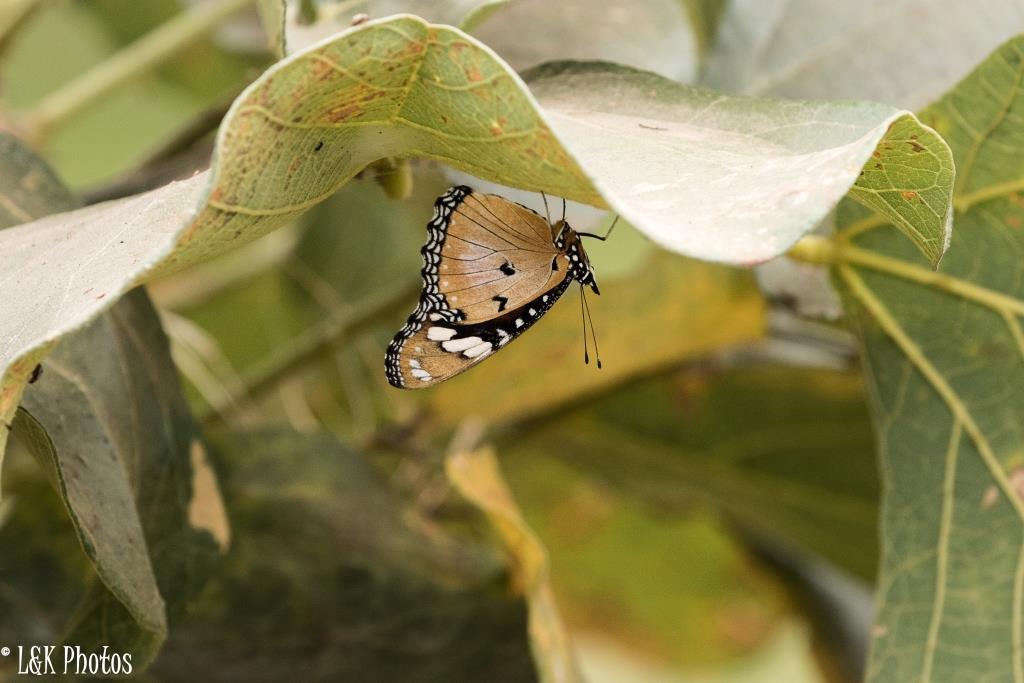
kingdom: Animalia
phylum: Arthropoda
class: Insecta
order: Lepidoptera
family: Nymphalidae
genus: Hypolimnas
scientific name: Hypolimnas misippus
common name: False plain tiger
